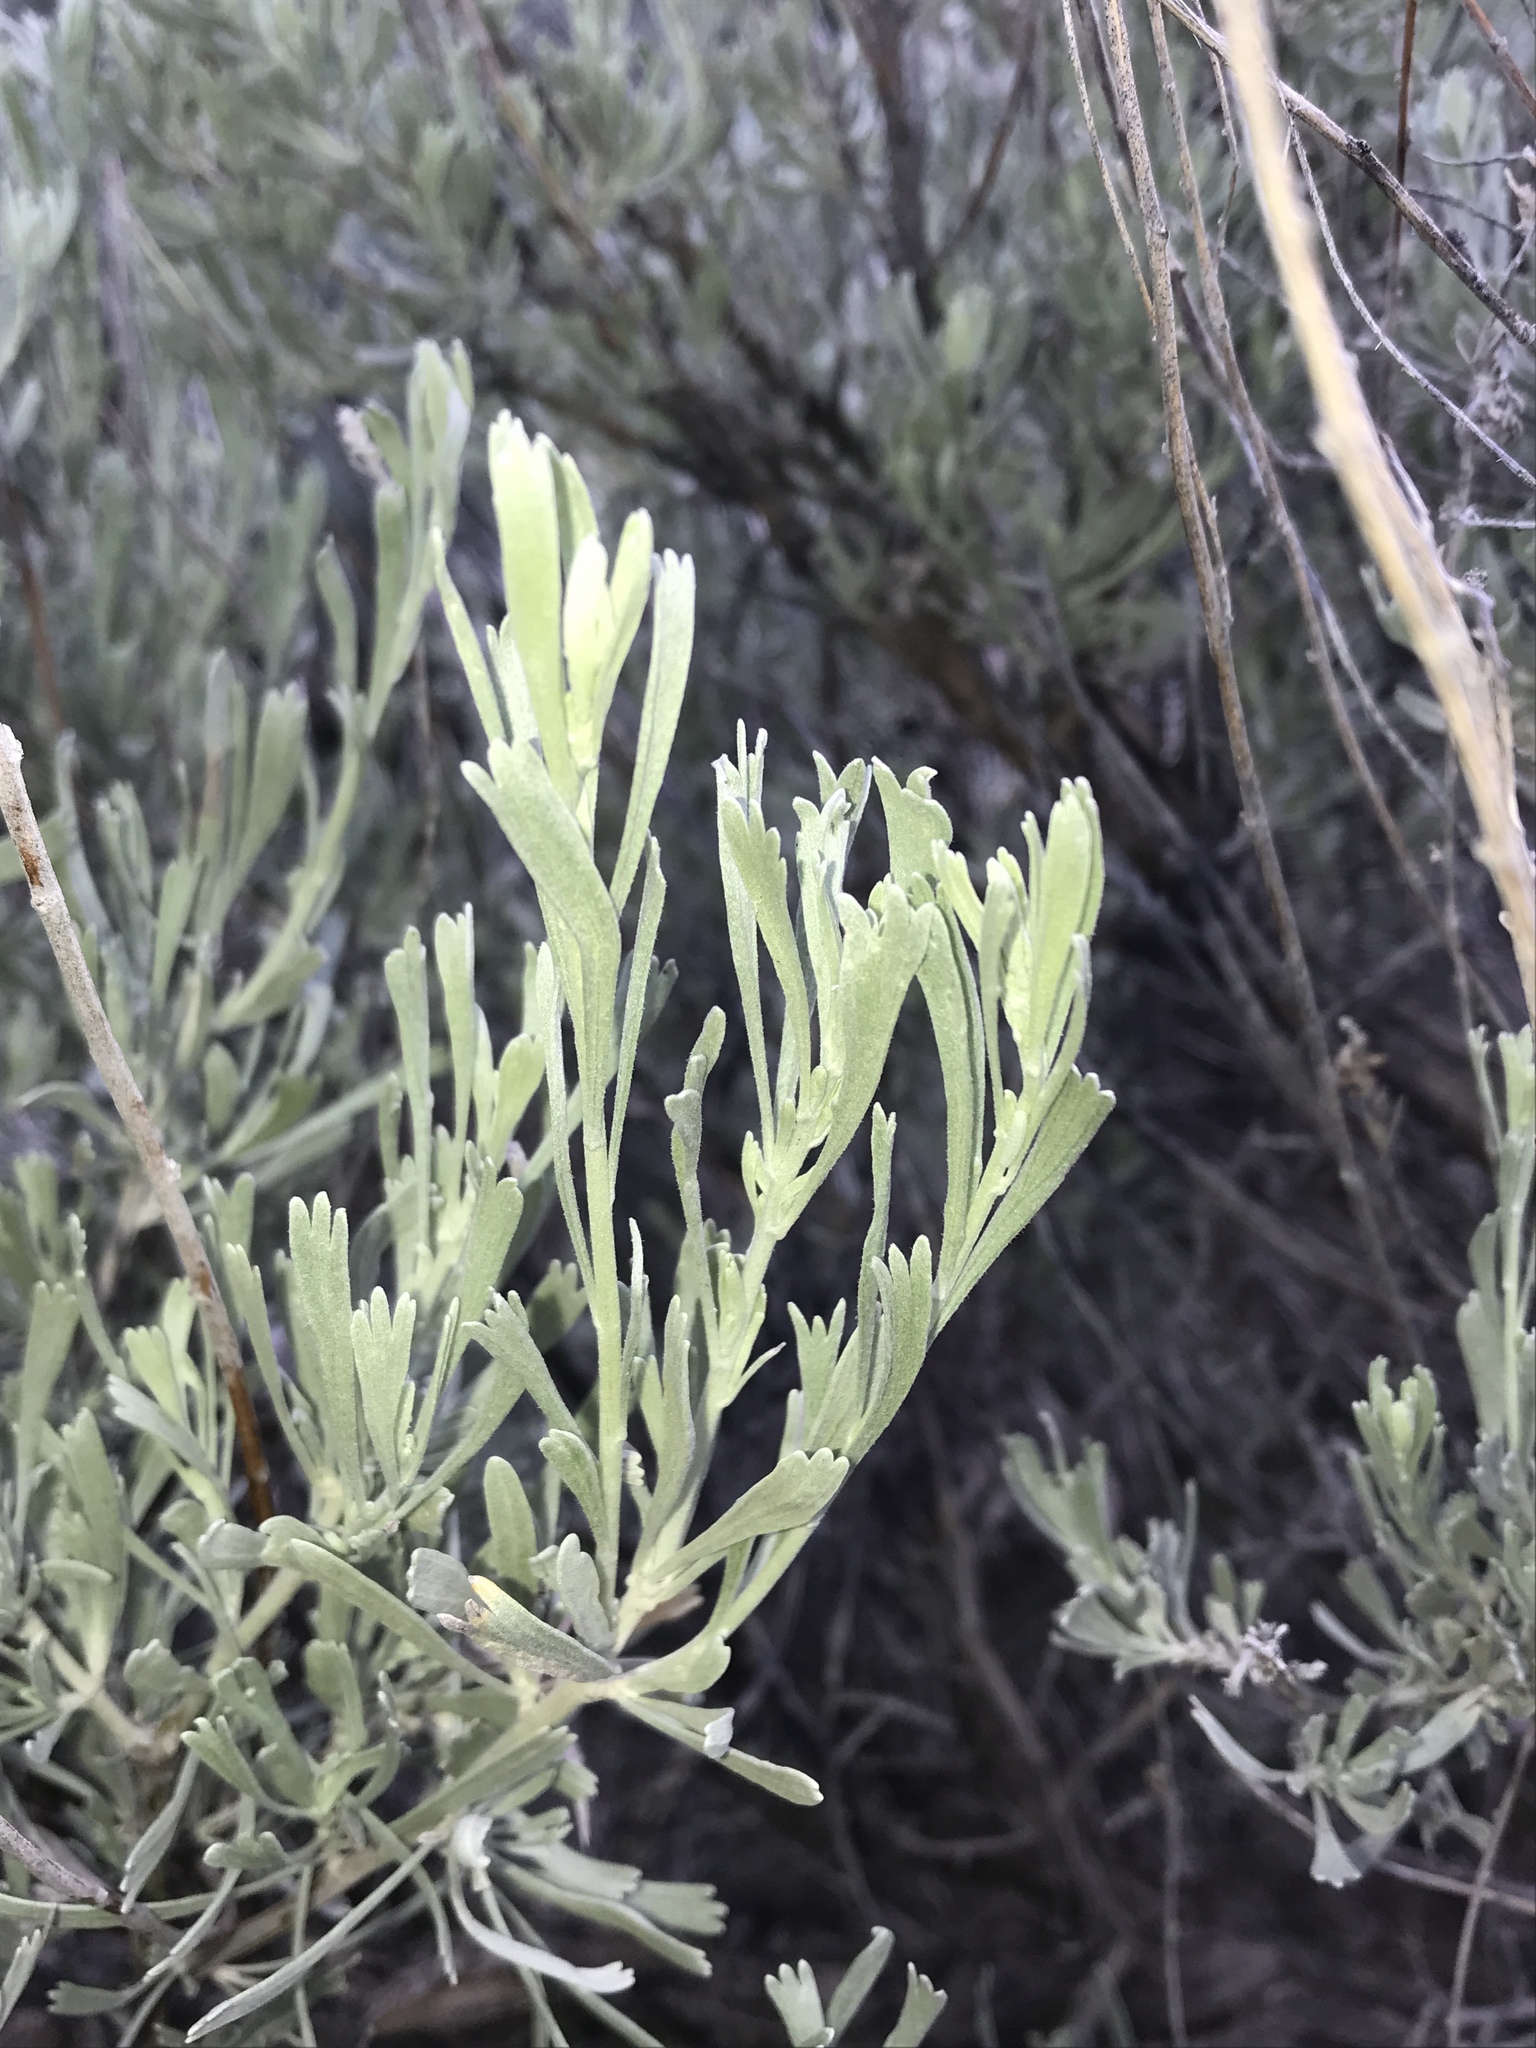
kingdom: Plantae
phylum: Tracheophyta
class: Magnoliopsida
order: Asterales
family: Asteraceae
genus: Artemisia
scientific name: Artemisia tridentata
